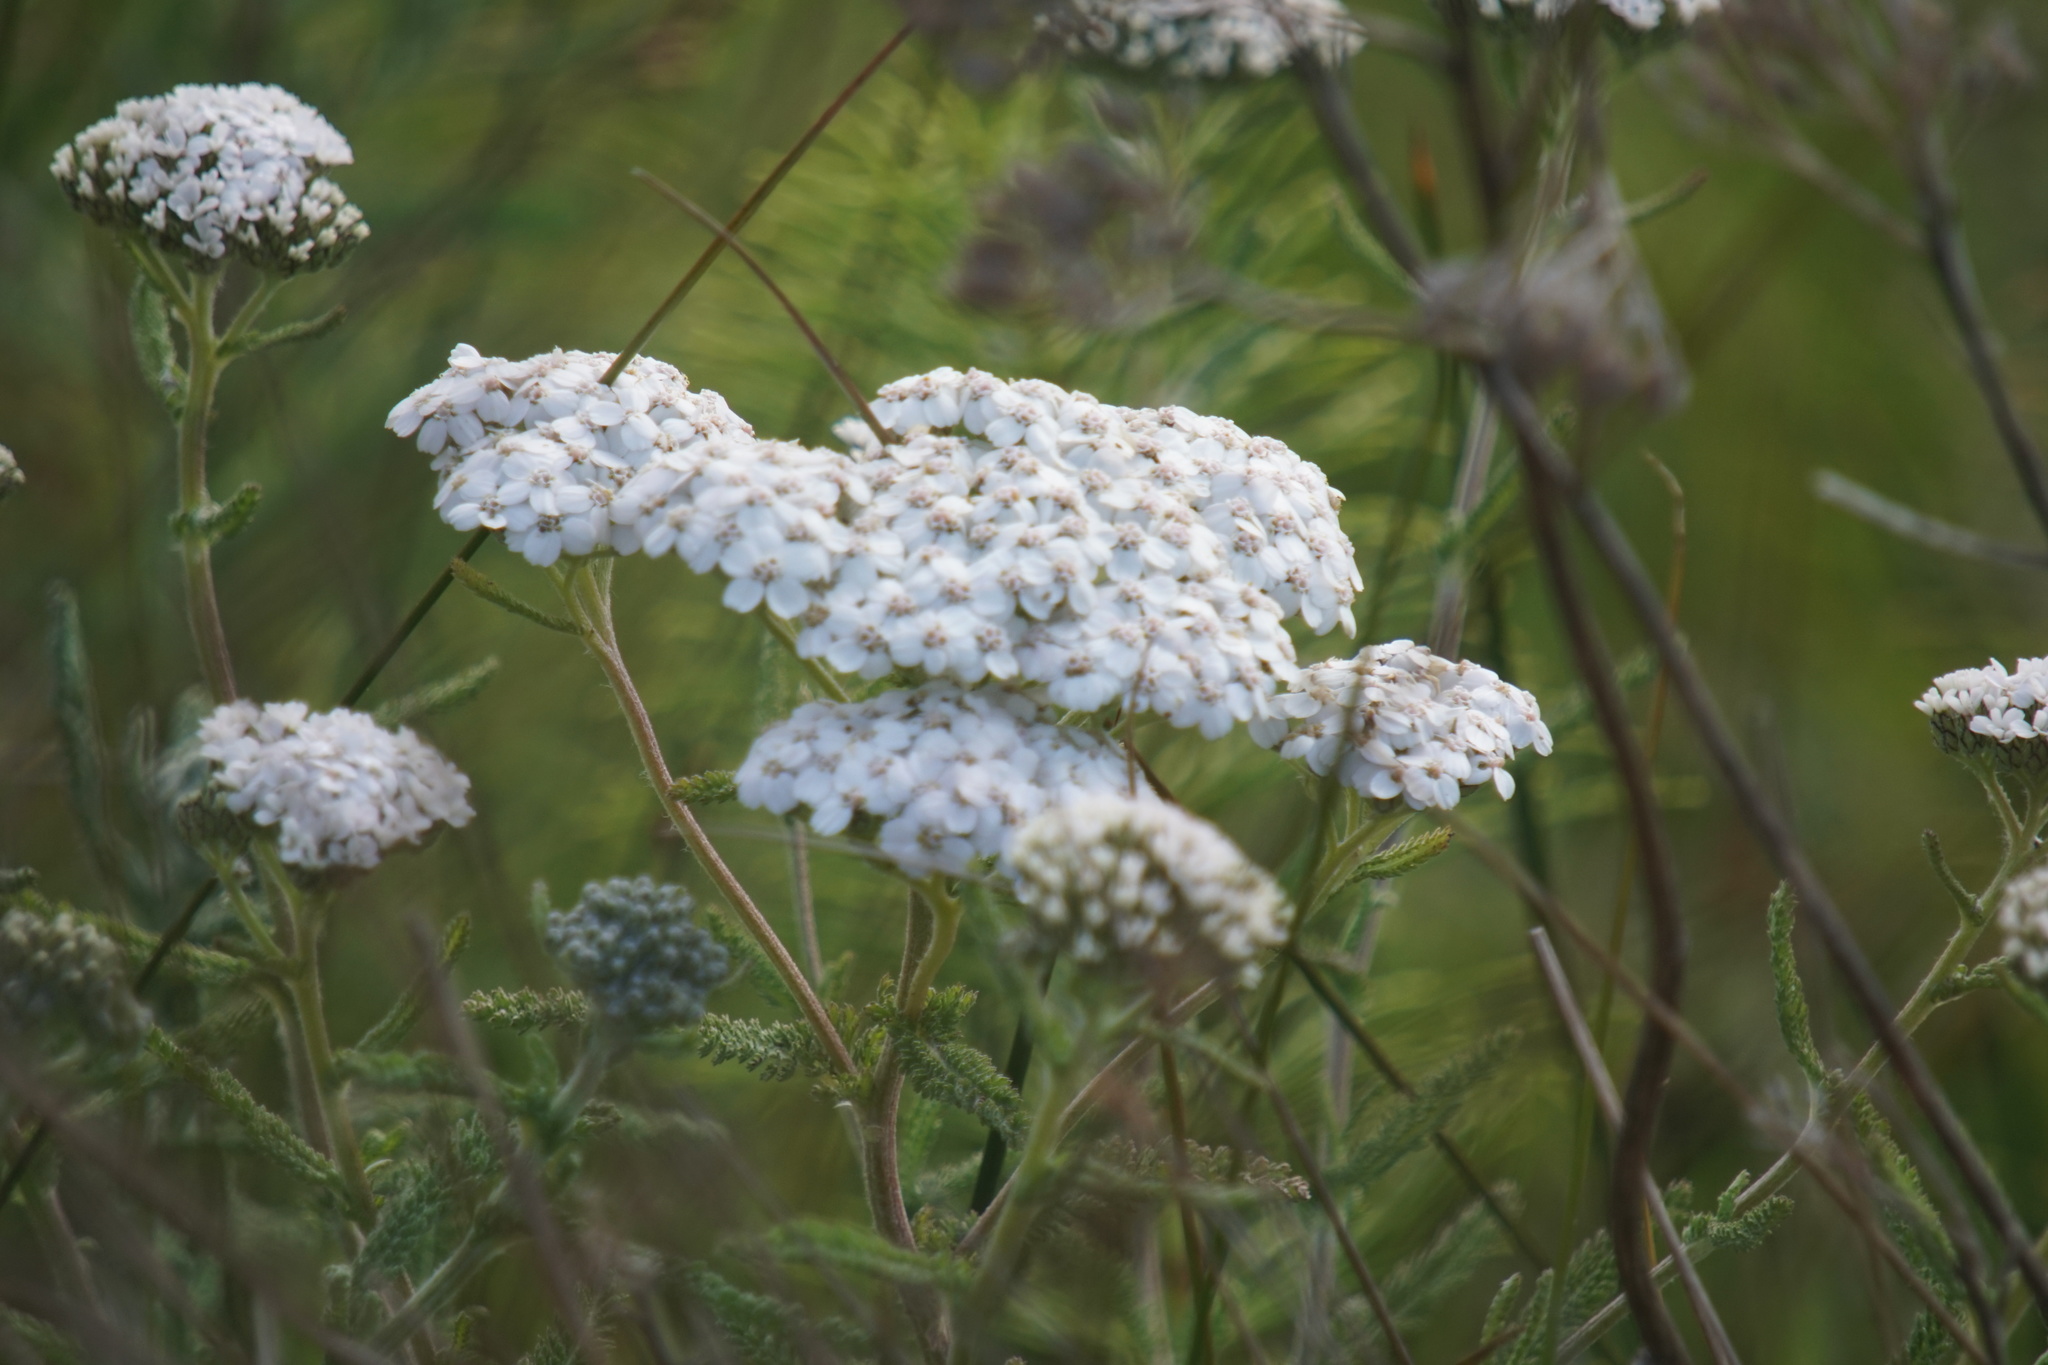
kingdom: Plantae
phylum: Tracheophyta
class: Magnoliopsida
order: Asterales
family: Asteraceae
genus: Achillea
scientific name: Achillea millefolium
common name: Yarrow
